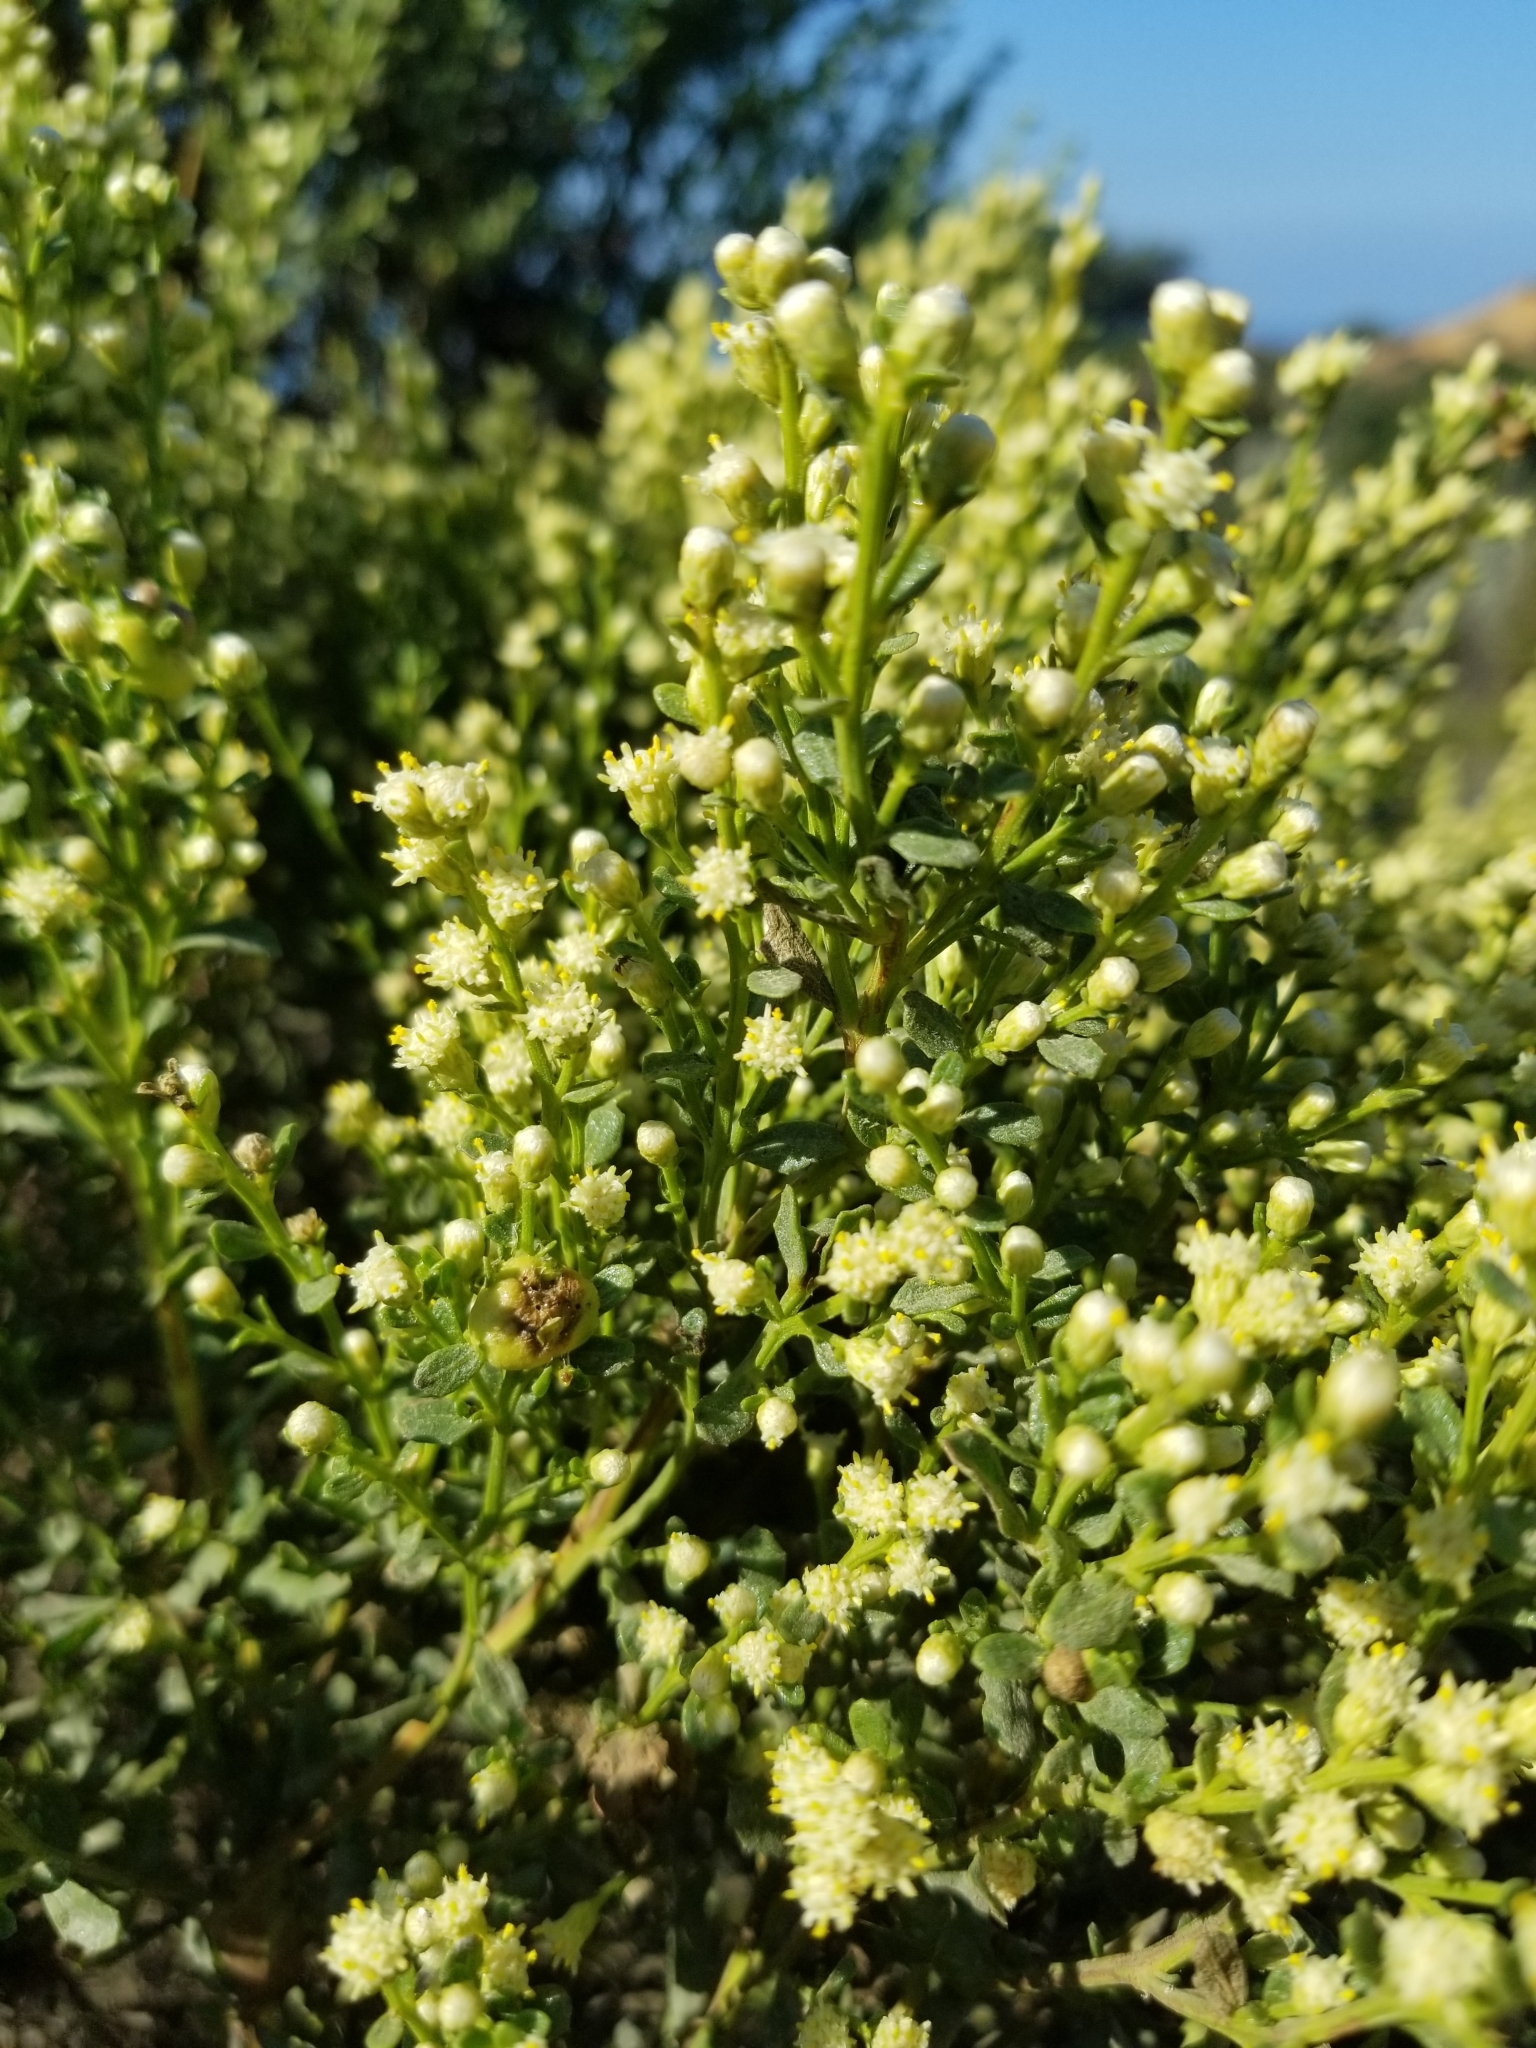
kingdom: Plantae
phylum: Tracheophyta
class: Magnoliopsida
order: Asterales
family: Asteraceae
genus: Baccharis
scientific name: Baccharis pilularis
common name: Coyotebrush
